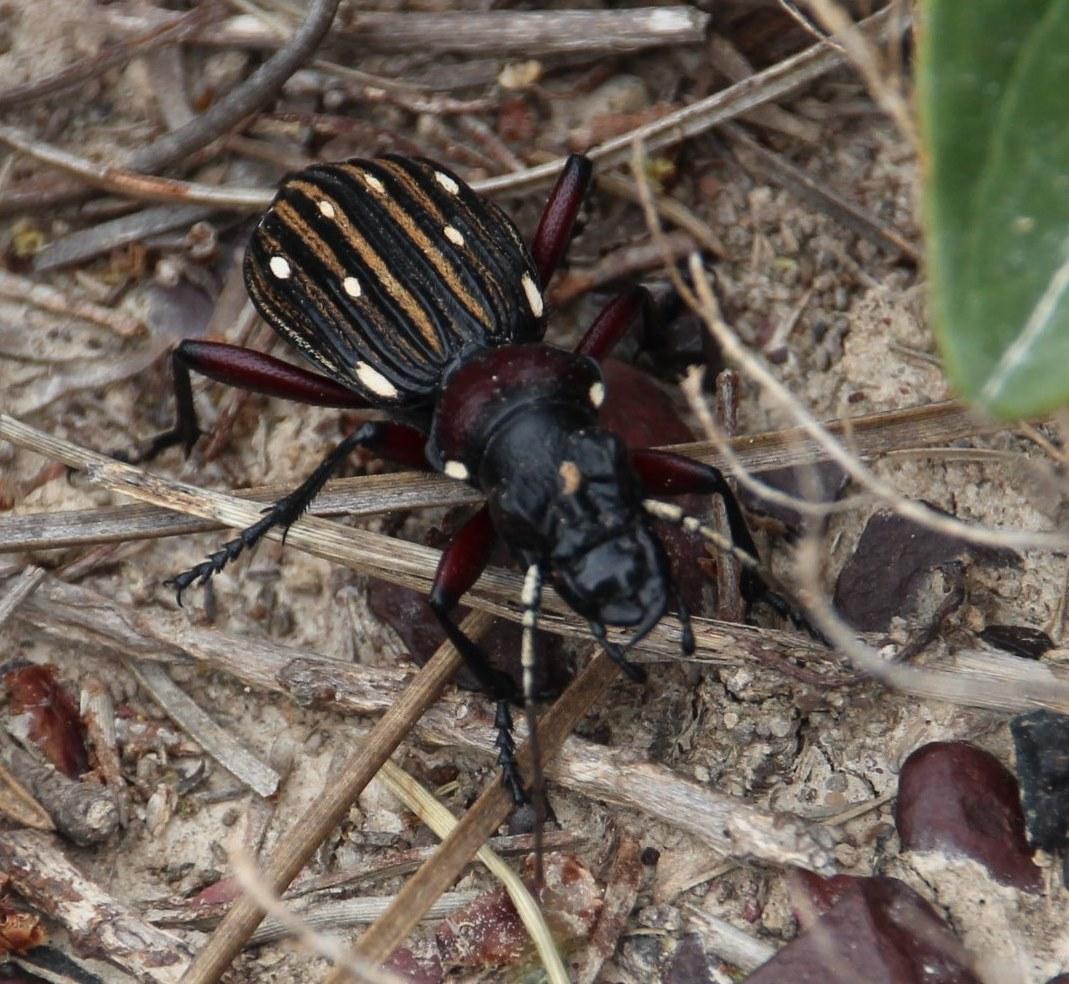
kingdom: Animalia
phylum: Arthropoda
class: Insecta
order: Coleoptera
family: Carabidae
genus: Anthia
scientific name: Anthia decemguttata
